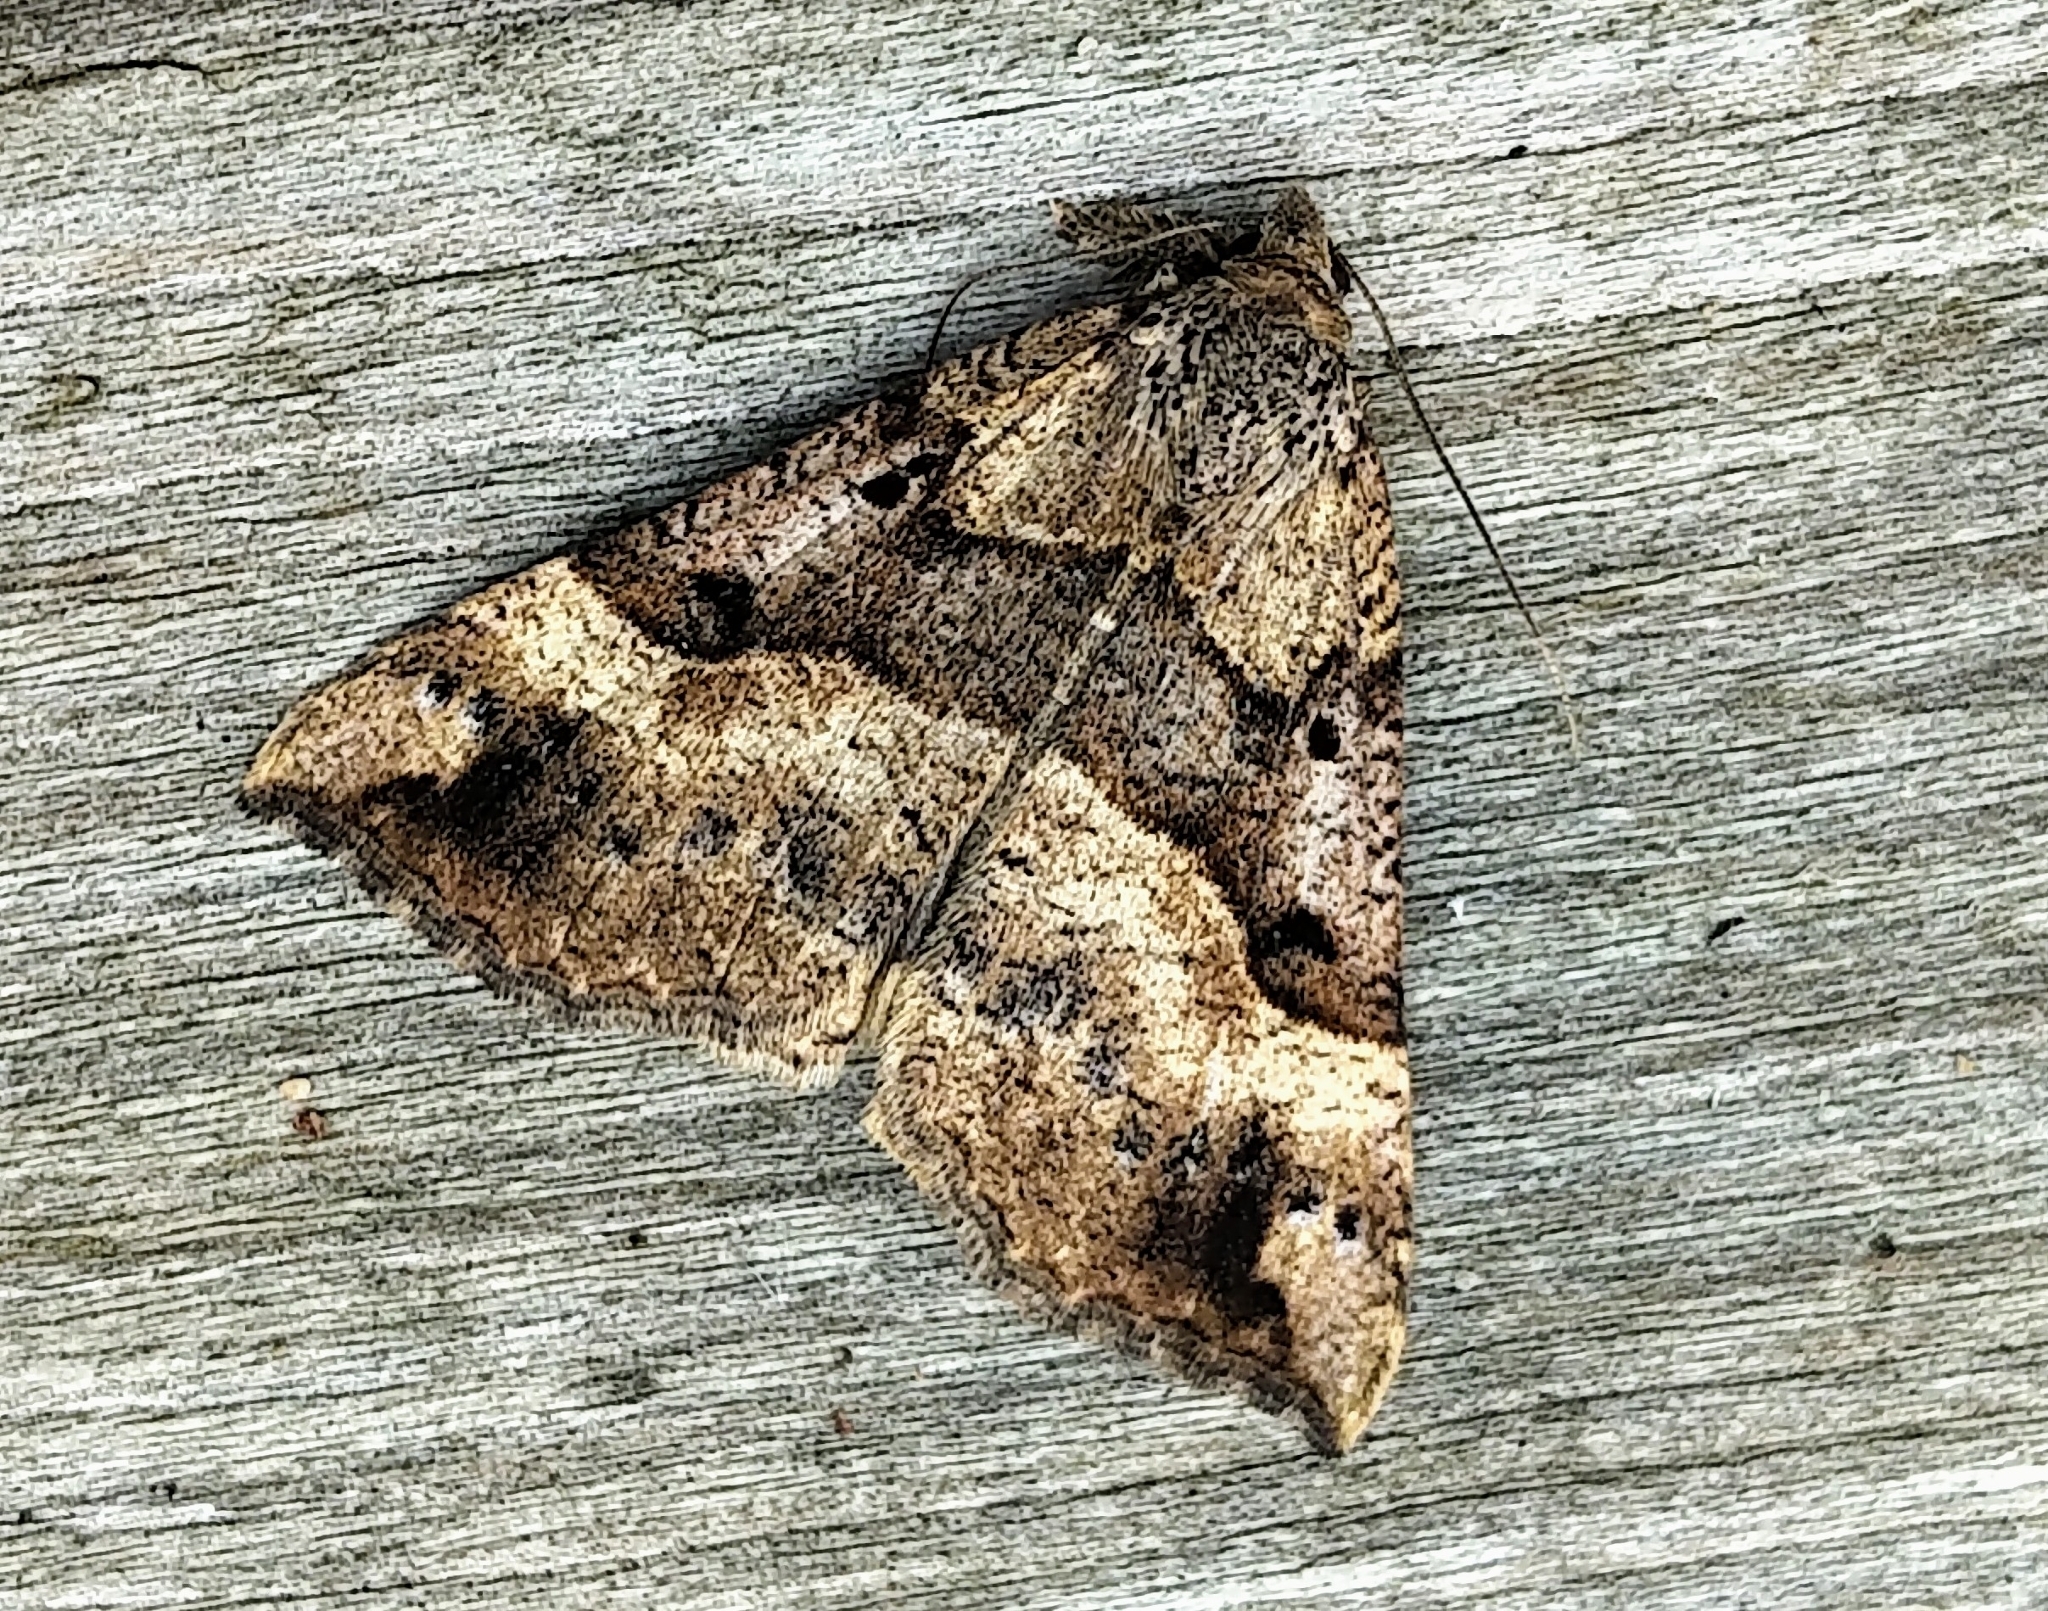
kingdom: Animalia
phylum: Arthropoda
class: Insecta
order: Lepidoptera
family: Erebidae
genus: Hypena
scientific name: Hypena edictalis
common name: Large snout
